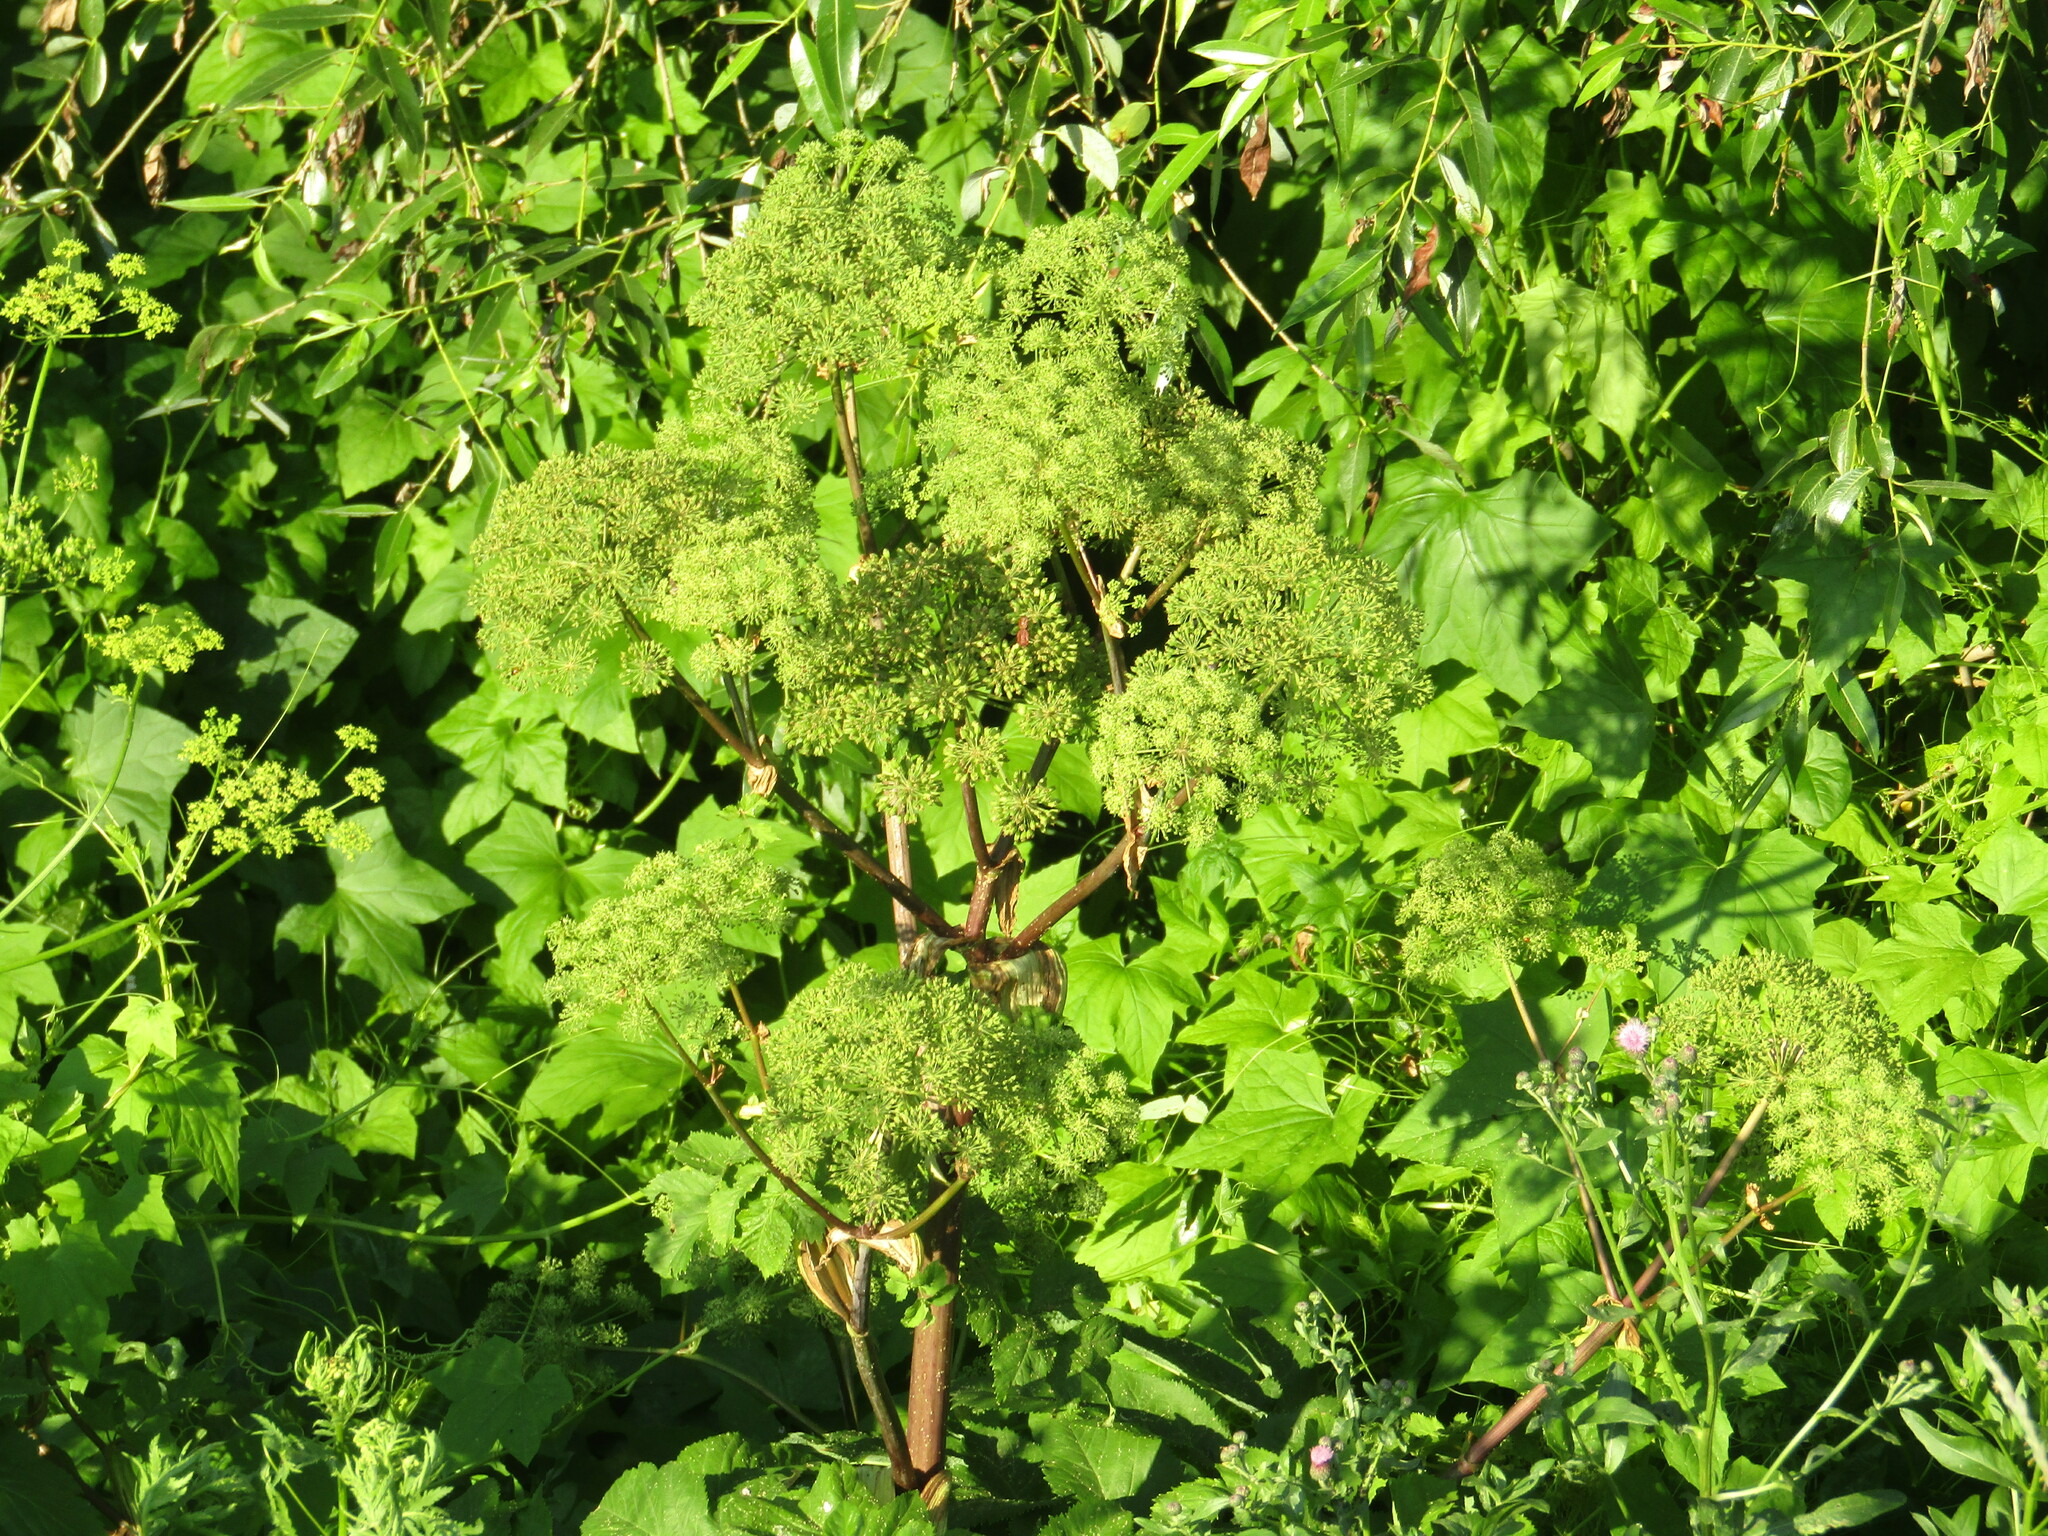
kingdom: Plantae
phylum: Tracheophyta
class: Magnoliopsida
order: Apiales
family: Apiaceae
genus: Angelica
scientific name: Angelica archangelica
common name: Garden angelica
